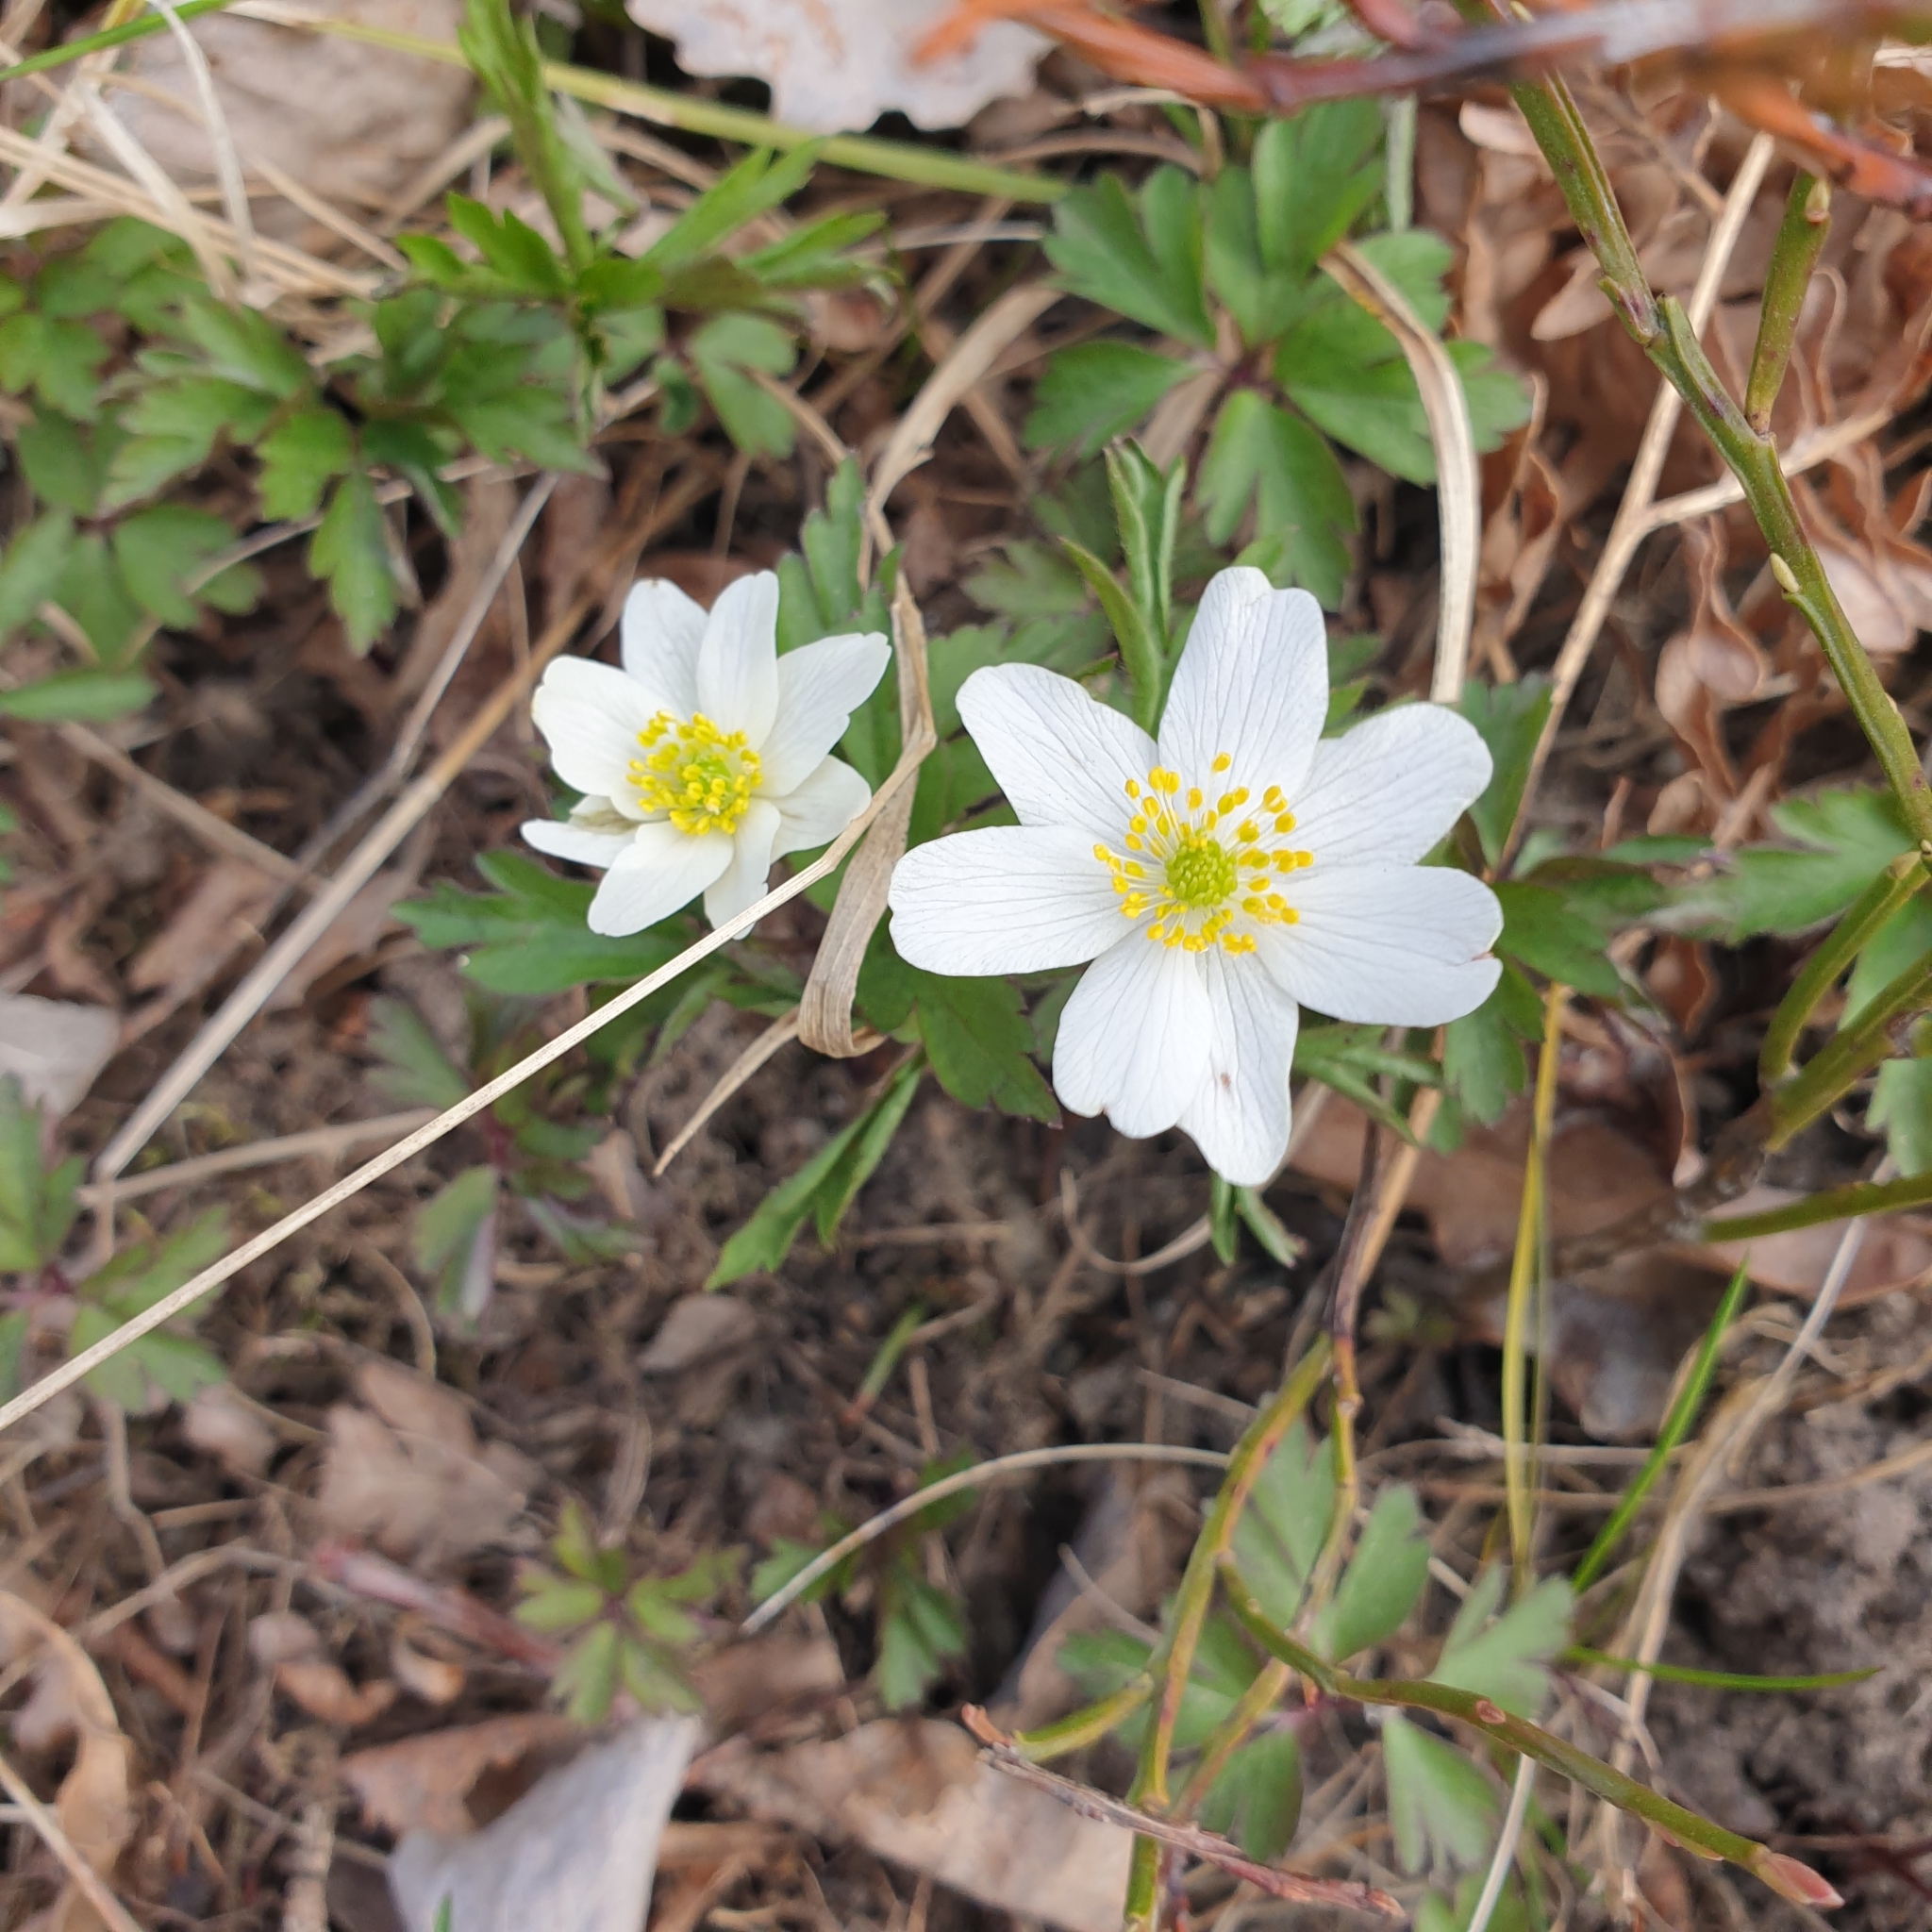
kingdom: Plantae
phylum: Tracheophyta
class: Magnoliopsida
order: Ranunculales
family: Ranunculaceae
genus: Anemone
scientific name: Anemone nemorosa
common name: Wood anemone
